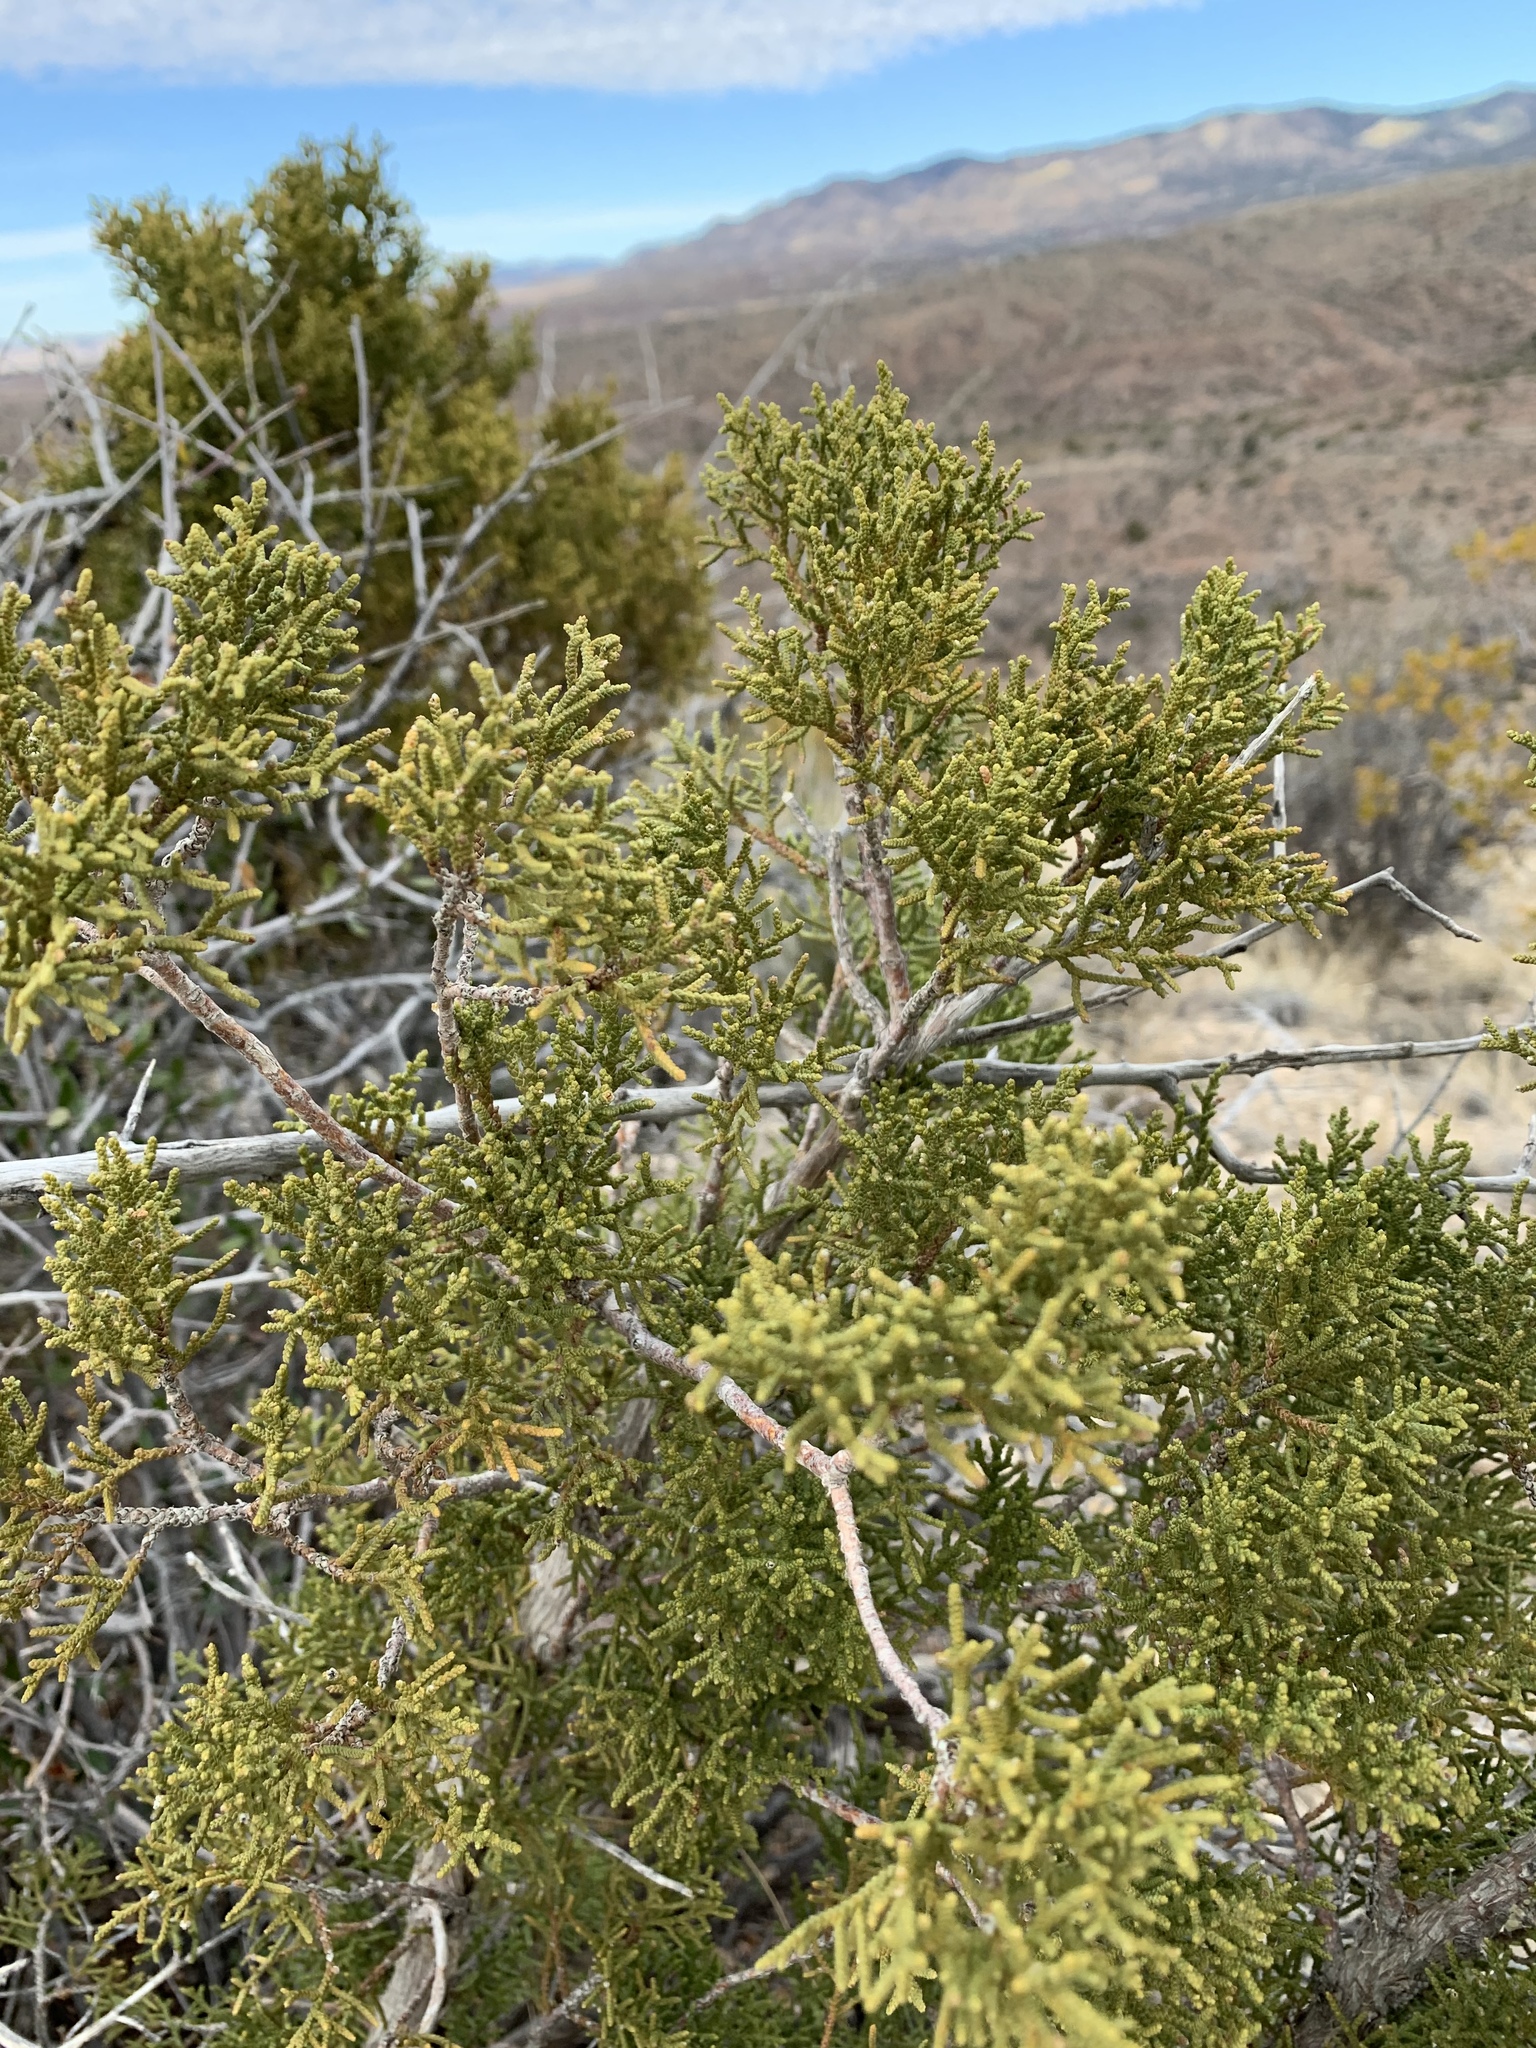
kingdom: Plantae
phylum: Tracheophyta
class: Pinopsida
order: Pinales
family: Cupressaceae
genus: Juniperus
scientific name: Juniperus monosperma
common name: One-seed juniper
